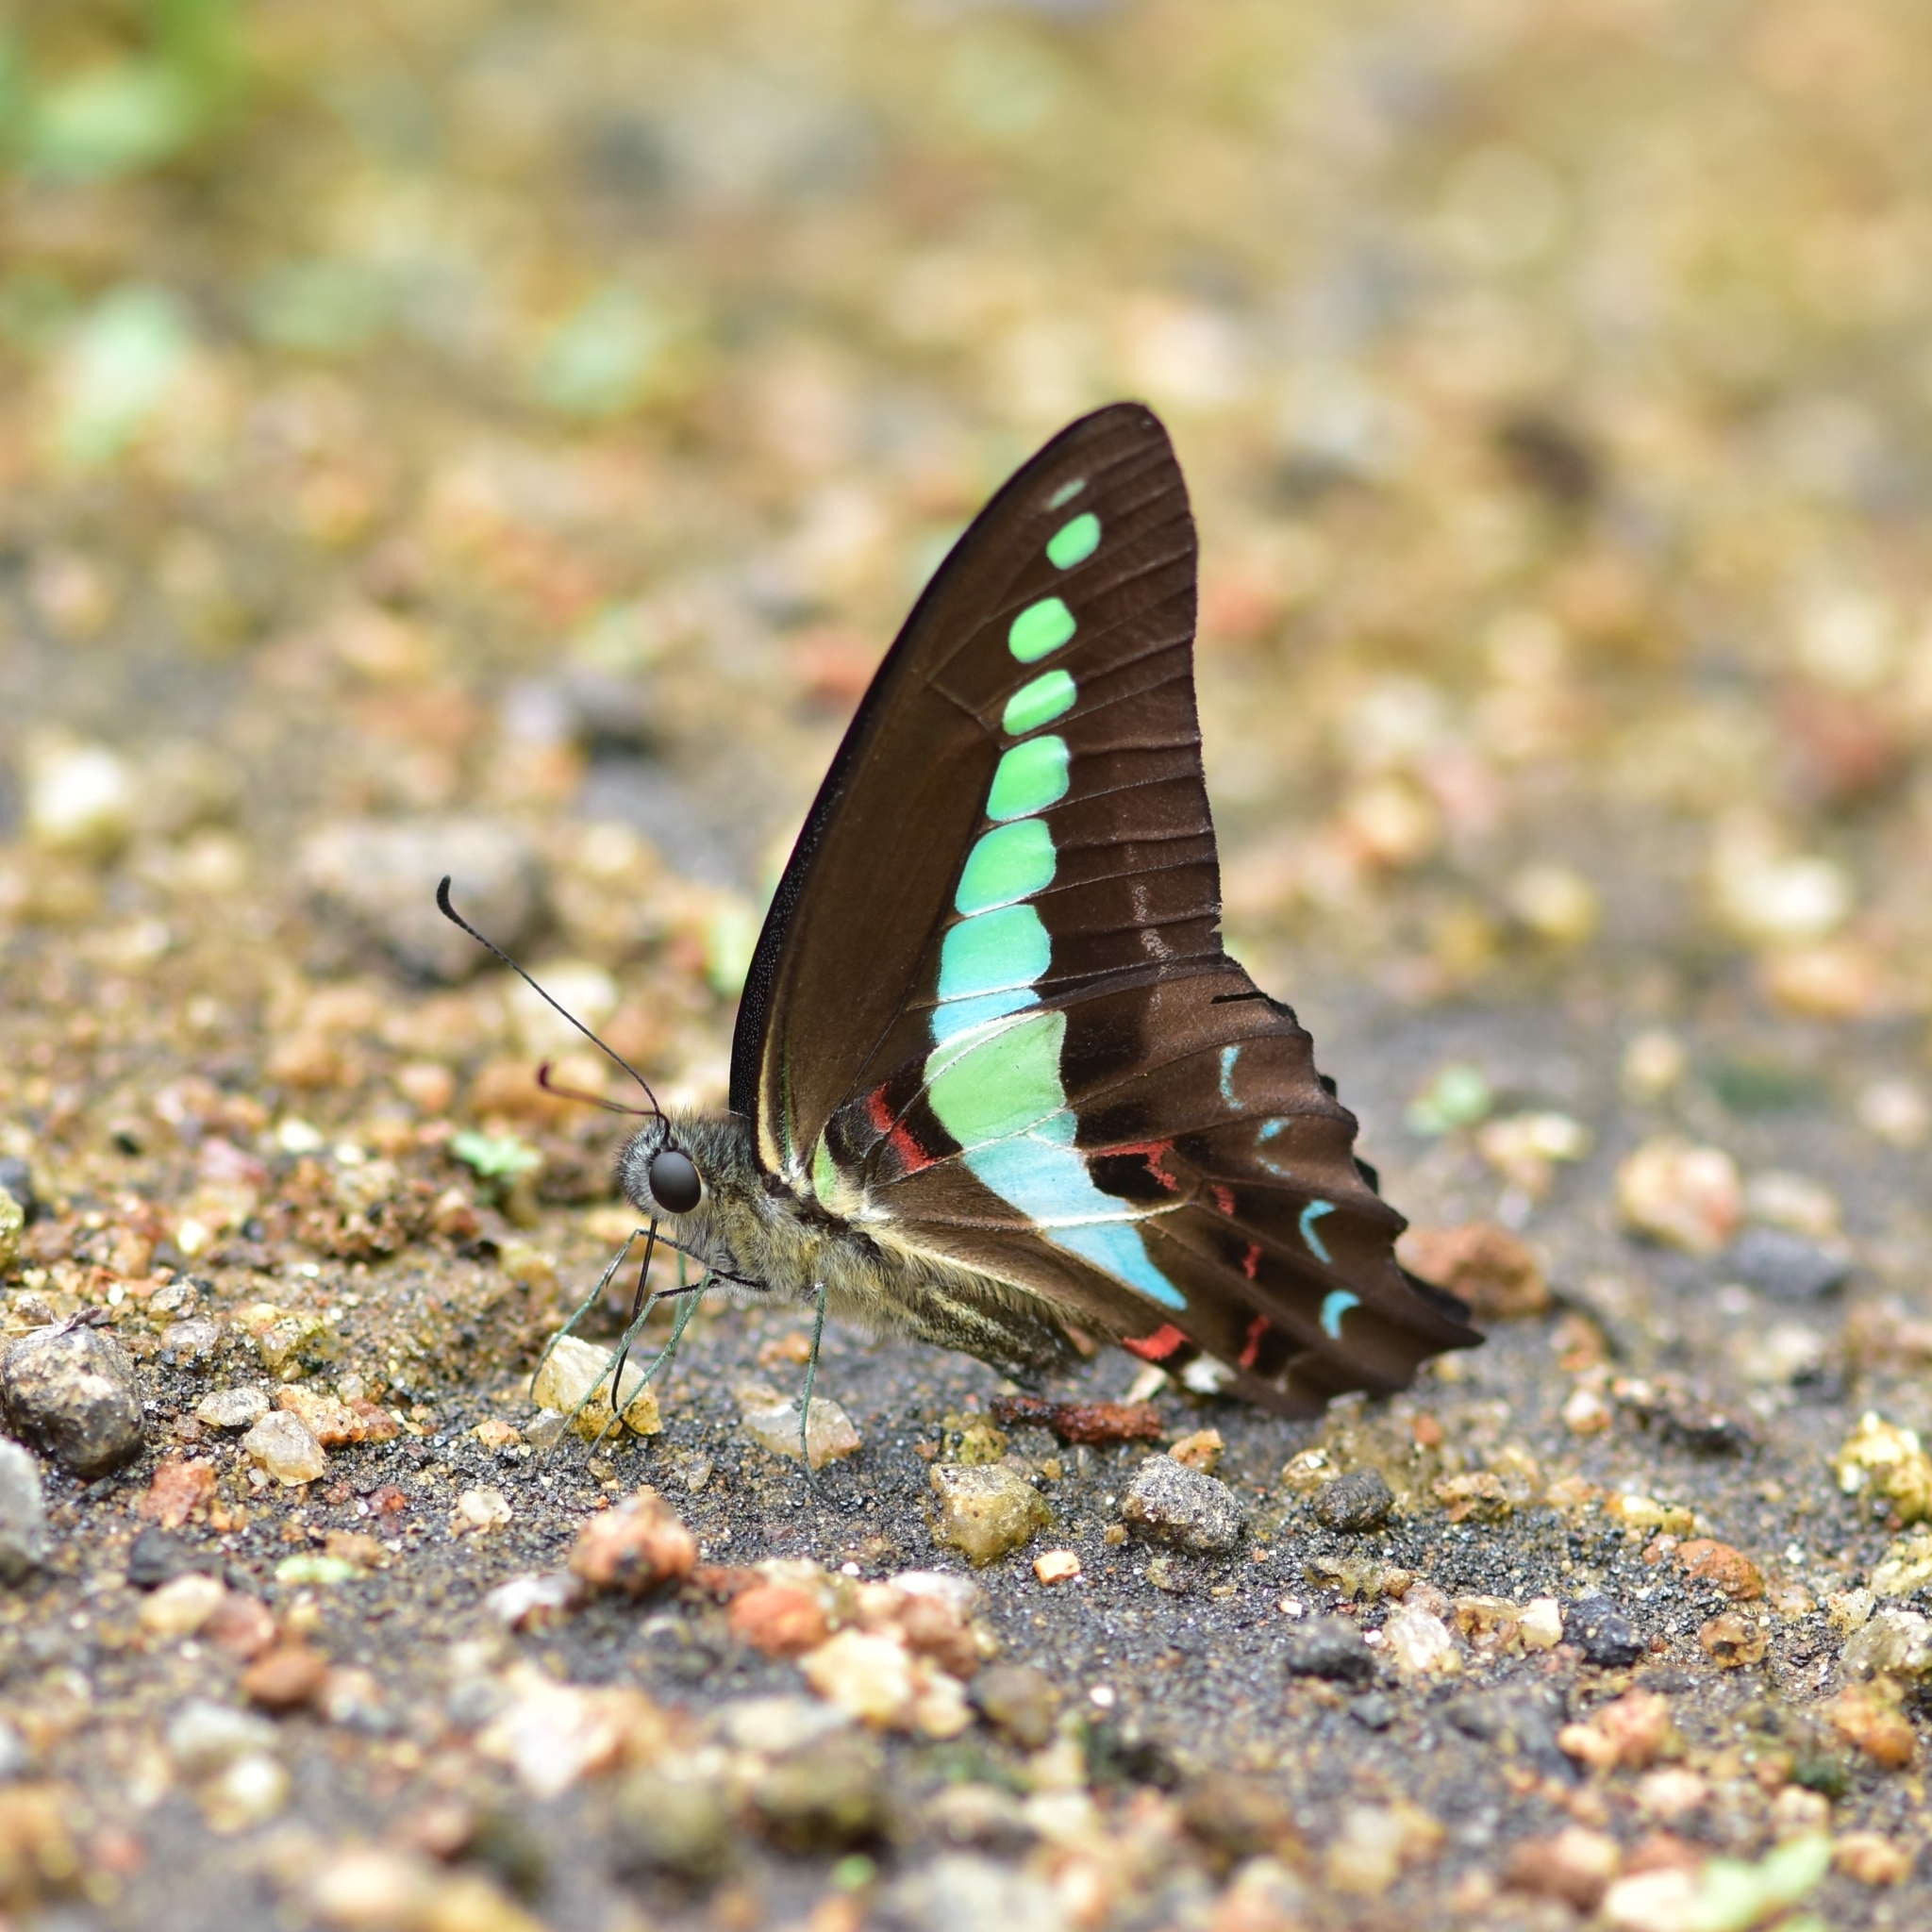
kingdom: Animalia
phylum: Arthropoda
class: Insecta
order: Lepidoptera
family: Papilionidae
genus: Graphium
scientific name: Graphium
